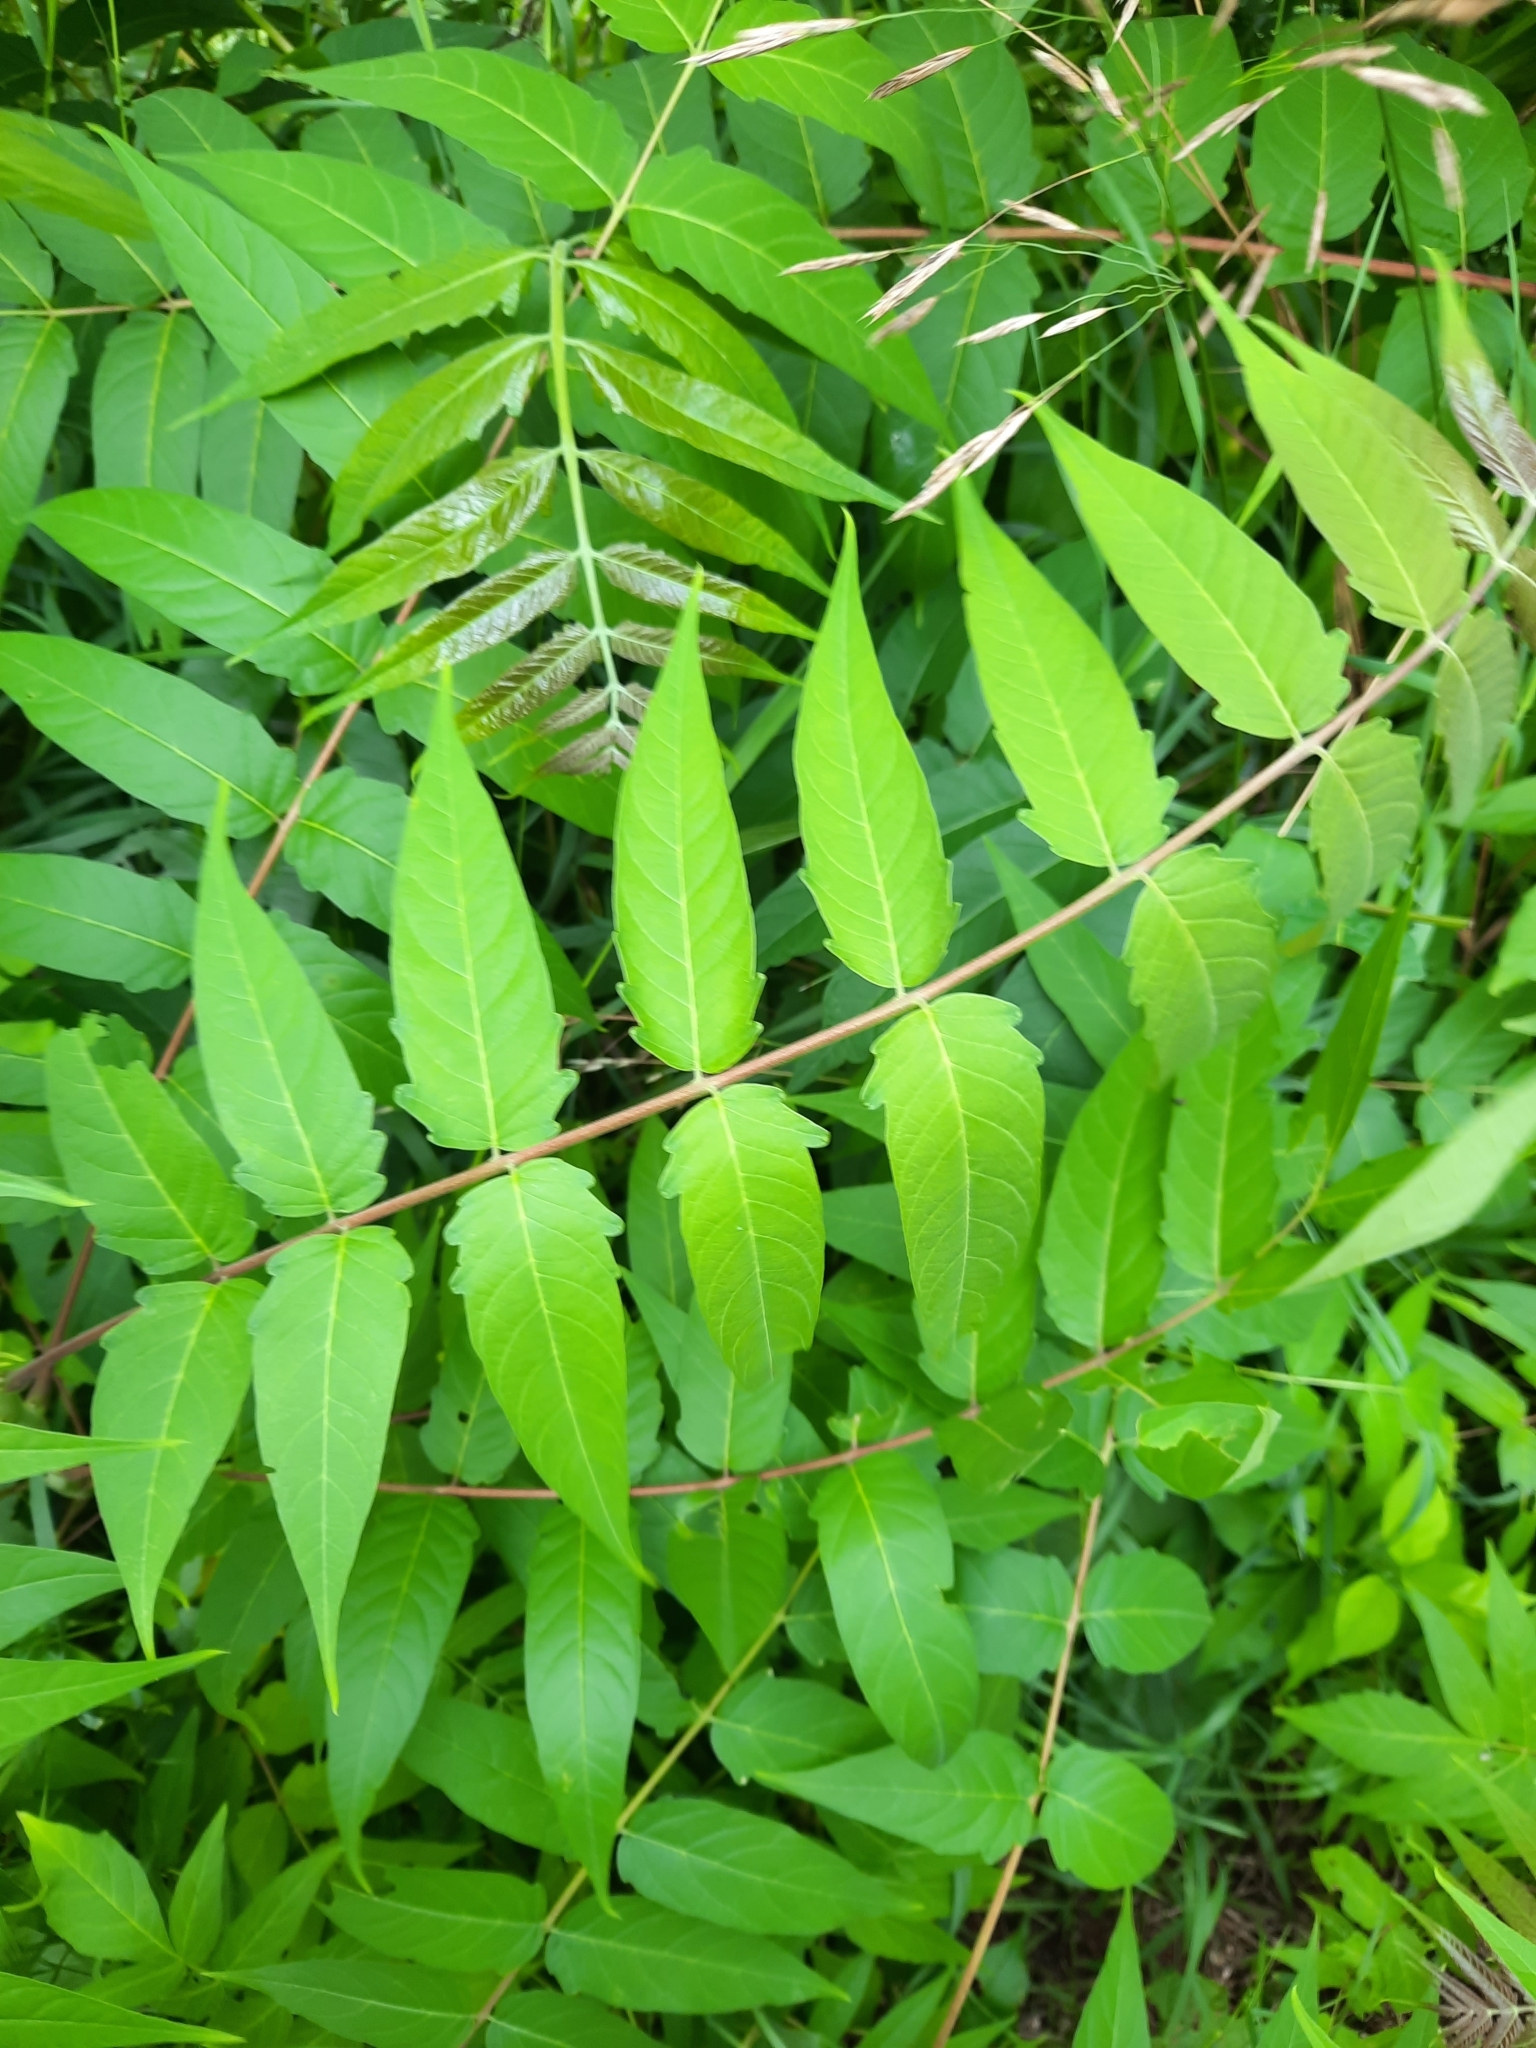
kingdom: Plantae
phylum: Tracheophyta
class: Magnoliopsida
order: Sapindales
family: Simaroubaceae
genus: Ailanthus
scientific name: Ailanthus altissima
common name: Tree-of-heaven
